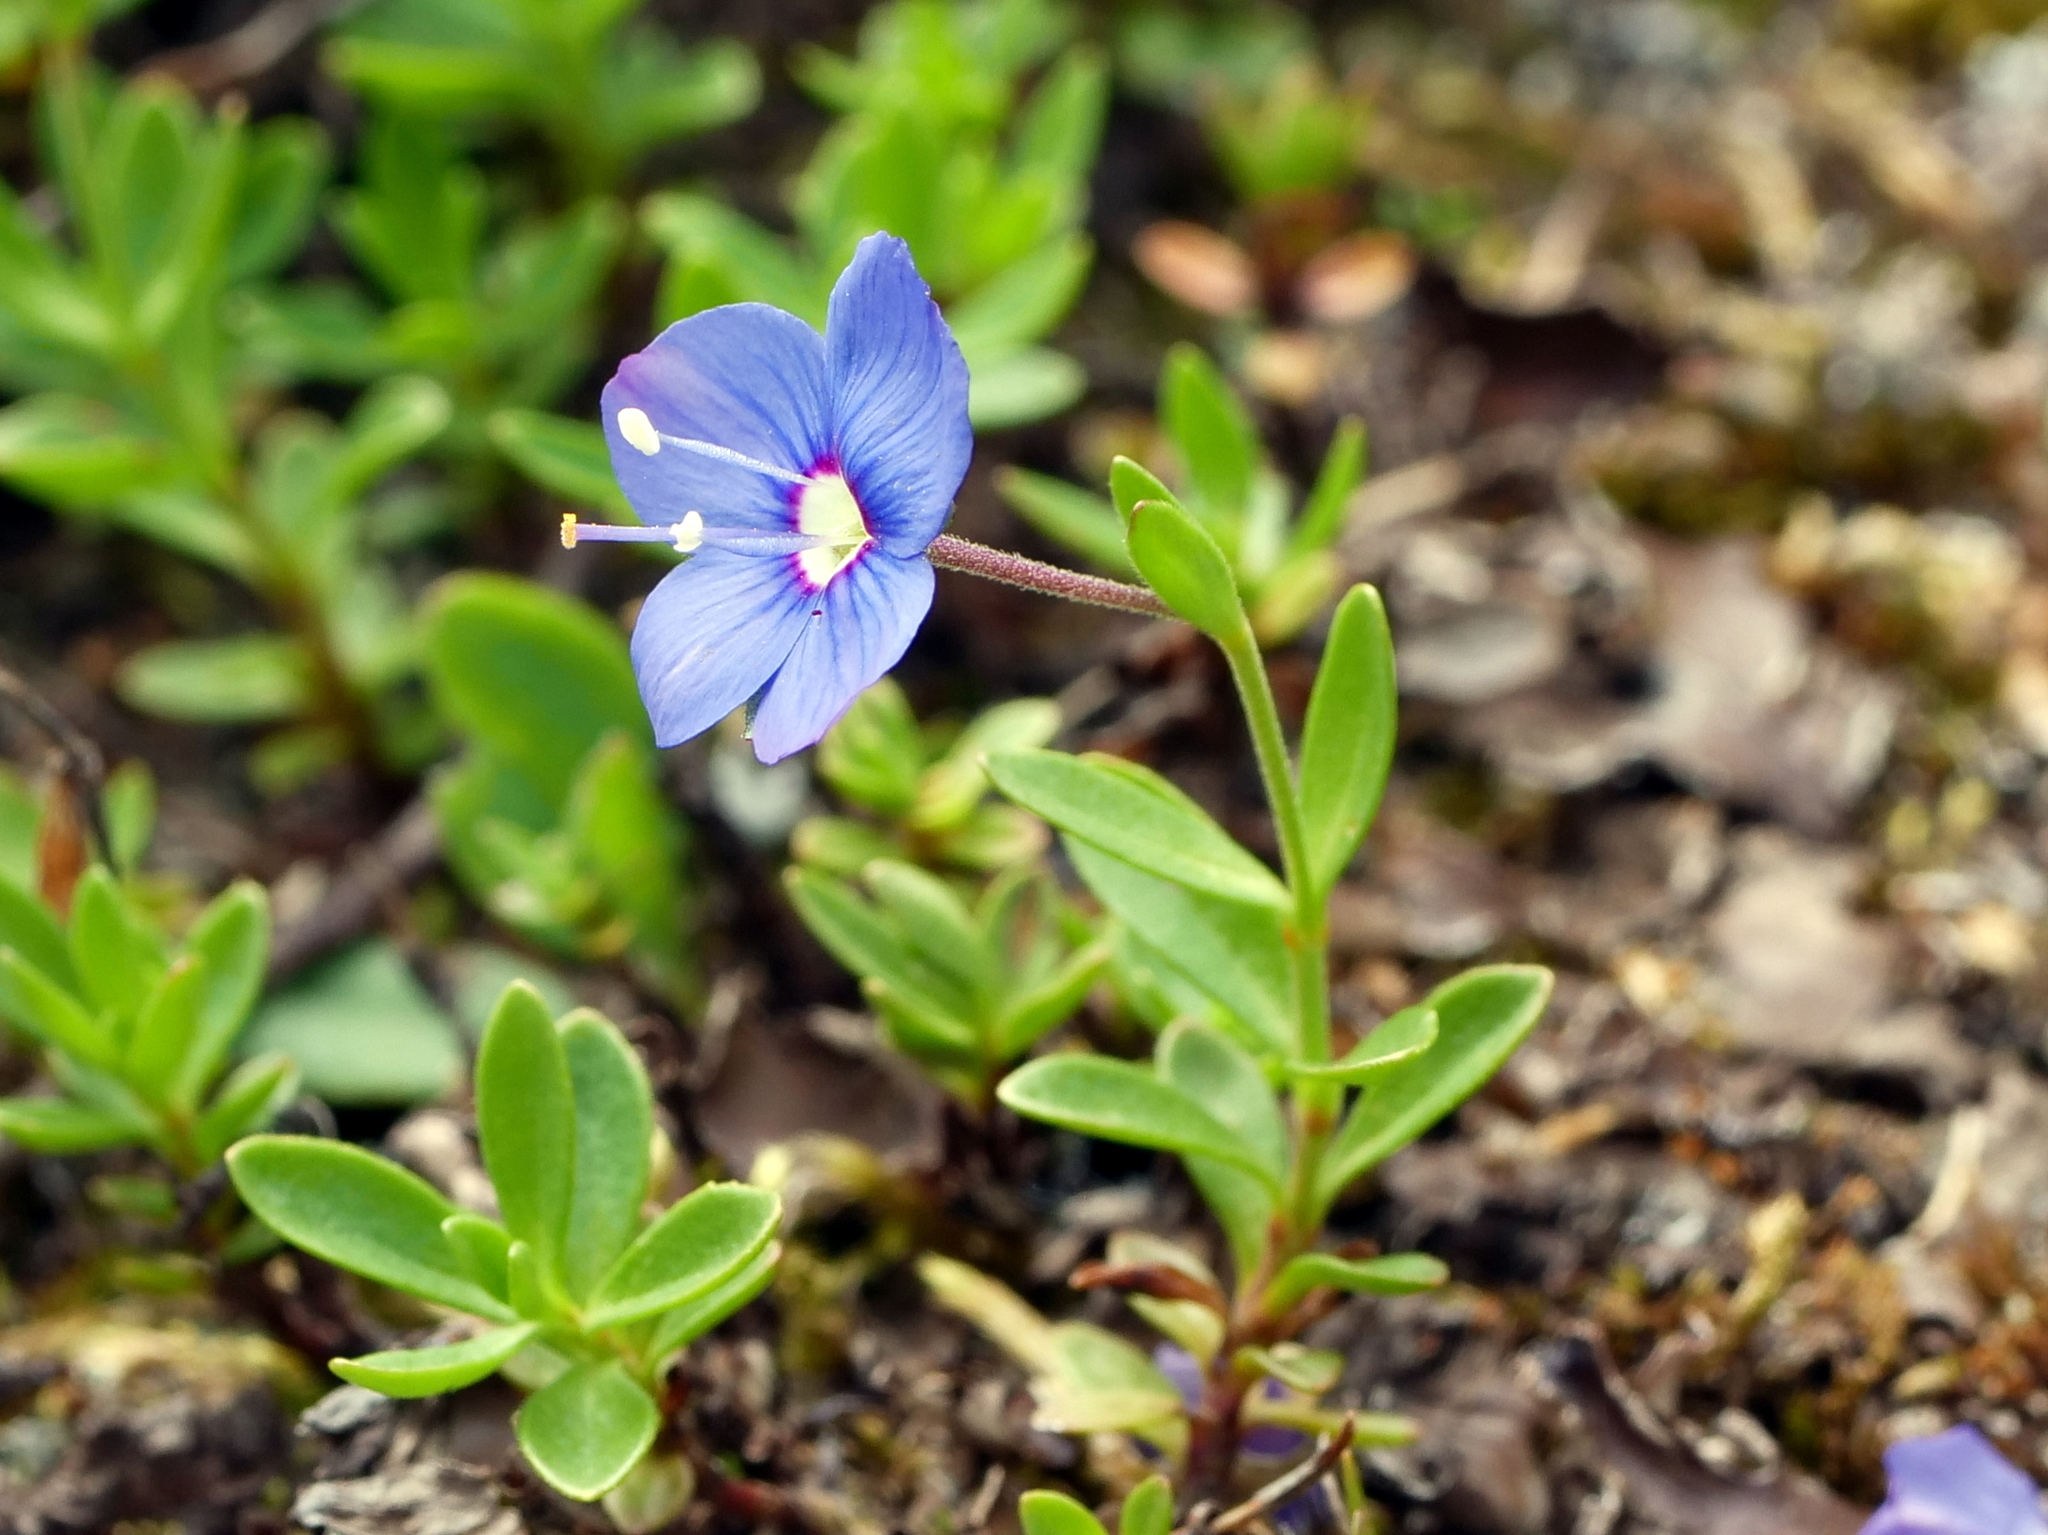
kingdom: Plantae
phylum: Tracheophyta
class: Magnoliopsida
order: Lamiales
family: Plantaginaceae
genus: Veronica
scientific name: Veronica fruticans
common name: Rock speedwell
